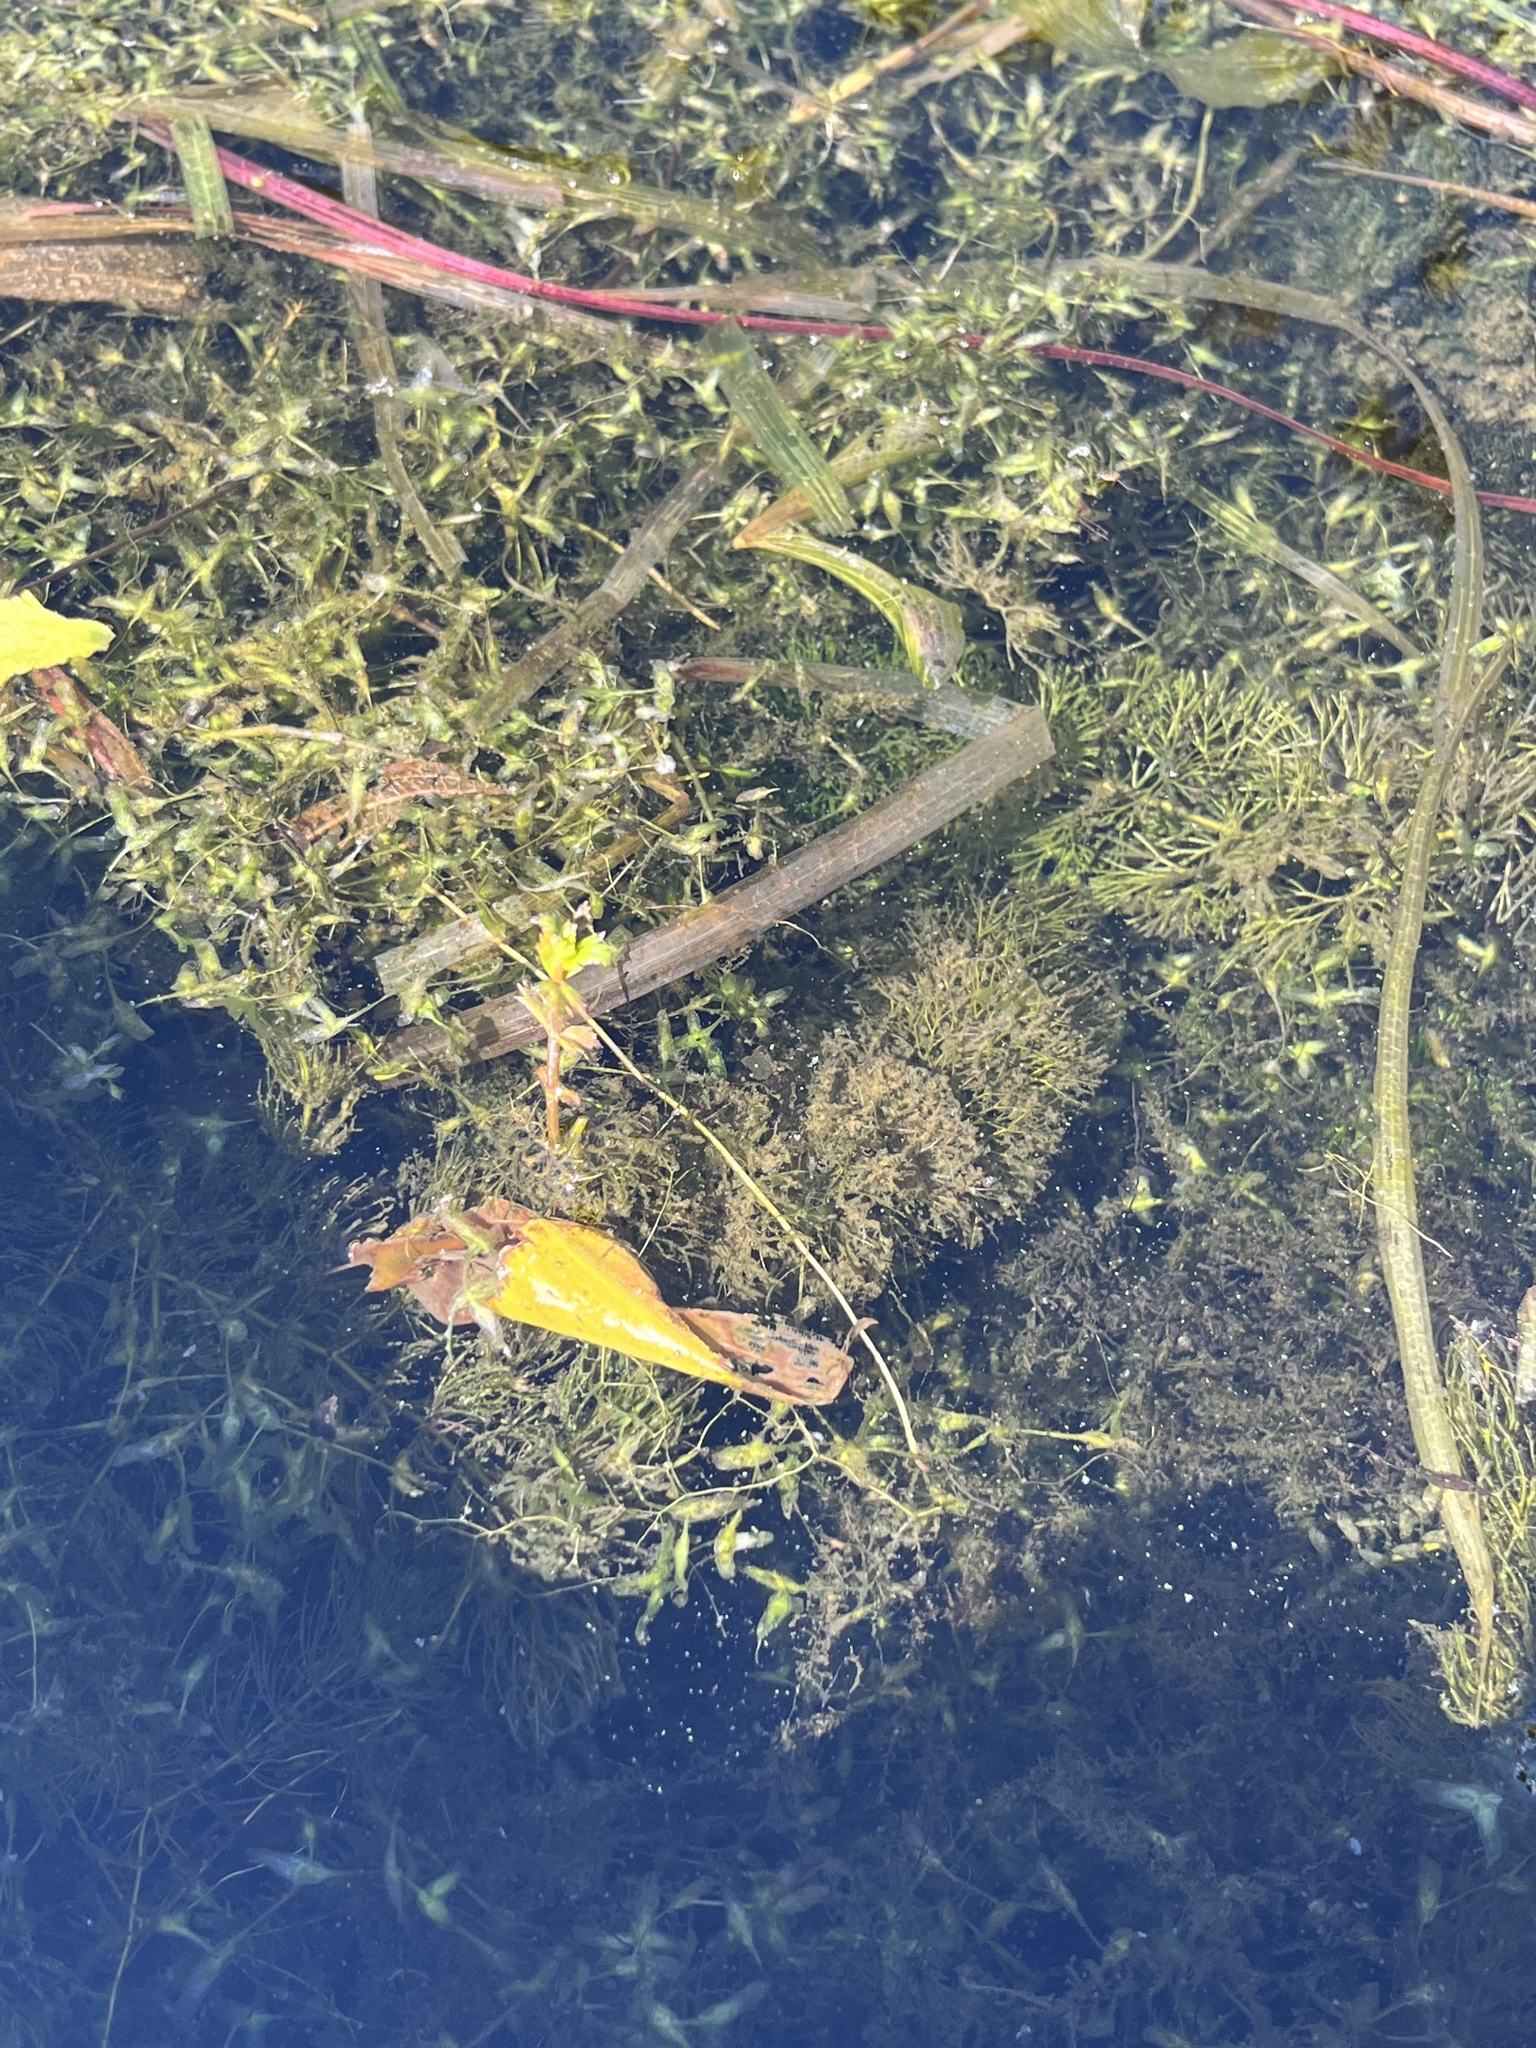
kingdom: Plantae
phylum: Tracheophyta
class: Magnoliopsida
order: Asterales
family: Asteraceae
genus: Bidens
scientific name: Bidens beckii
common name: Beck's beggarticks
